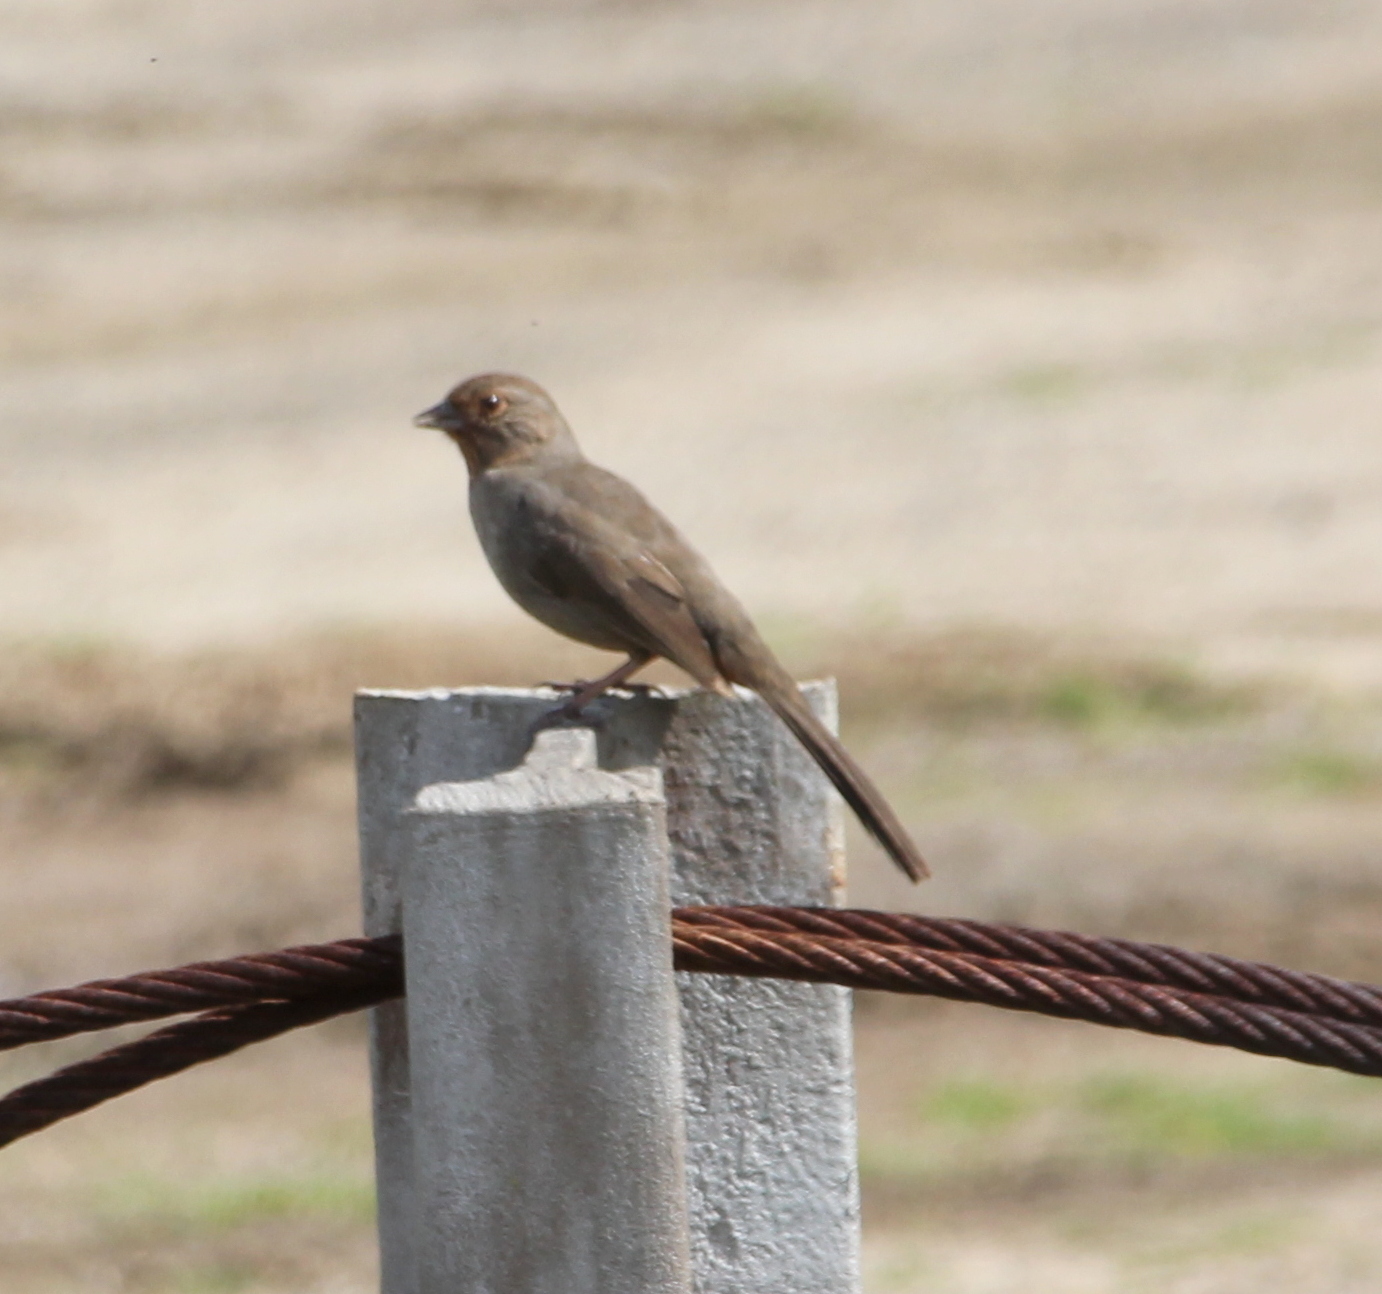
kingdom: Animalia
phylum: Chordata
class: Aves
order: Passeriformes
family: Passerellidae
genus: Melozone
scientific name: Melozone crissalis
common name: California towhee
